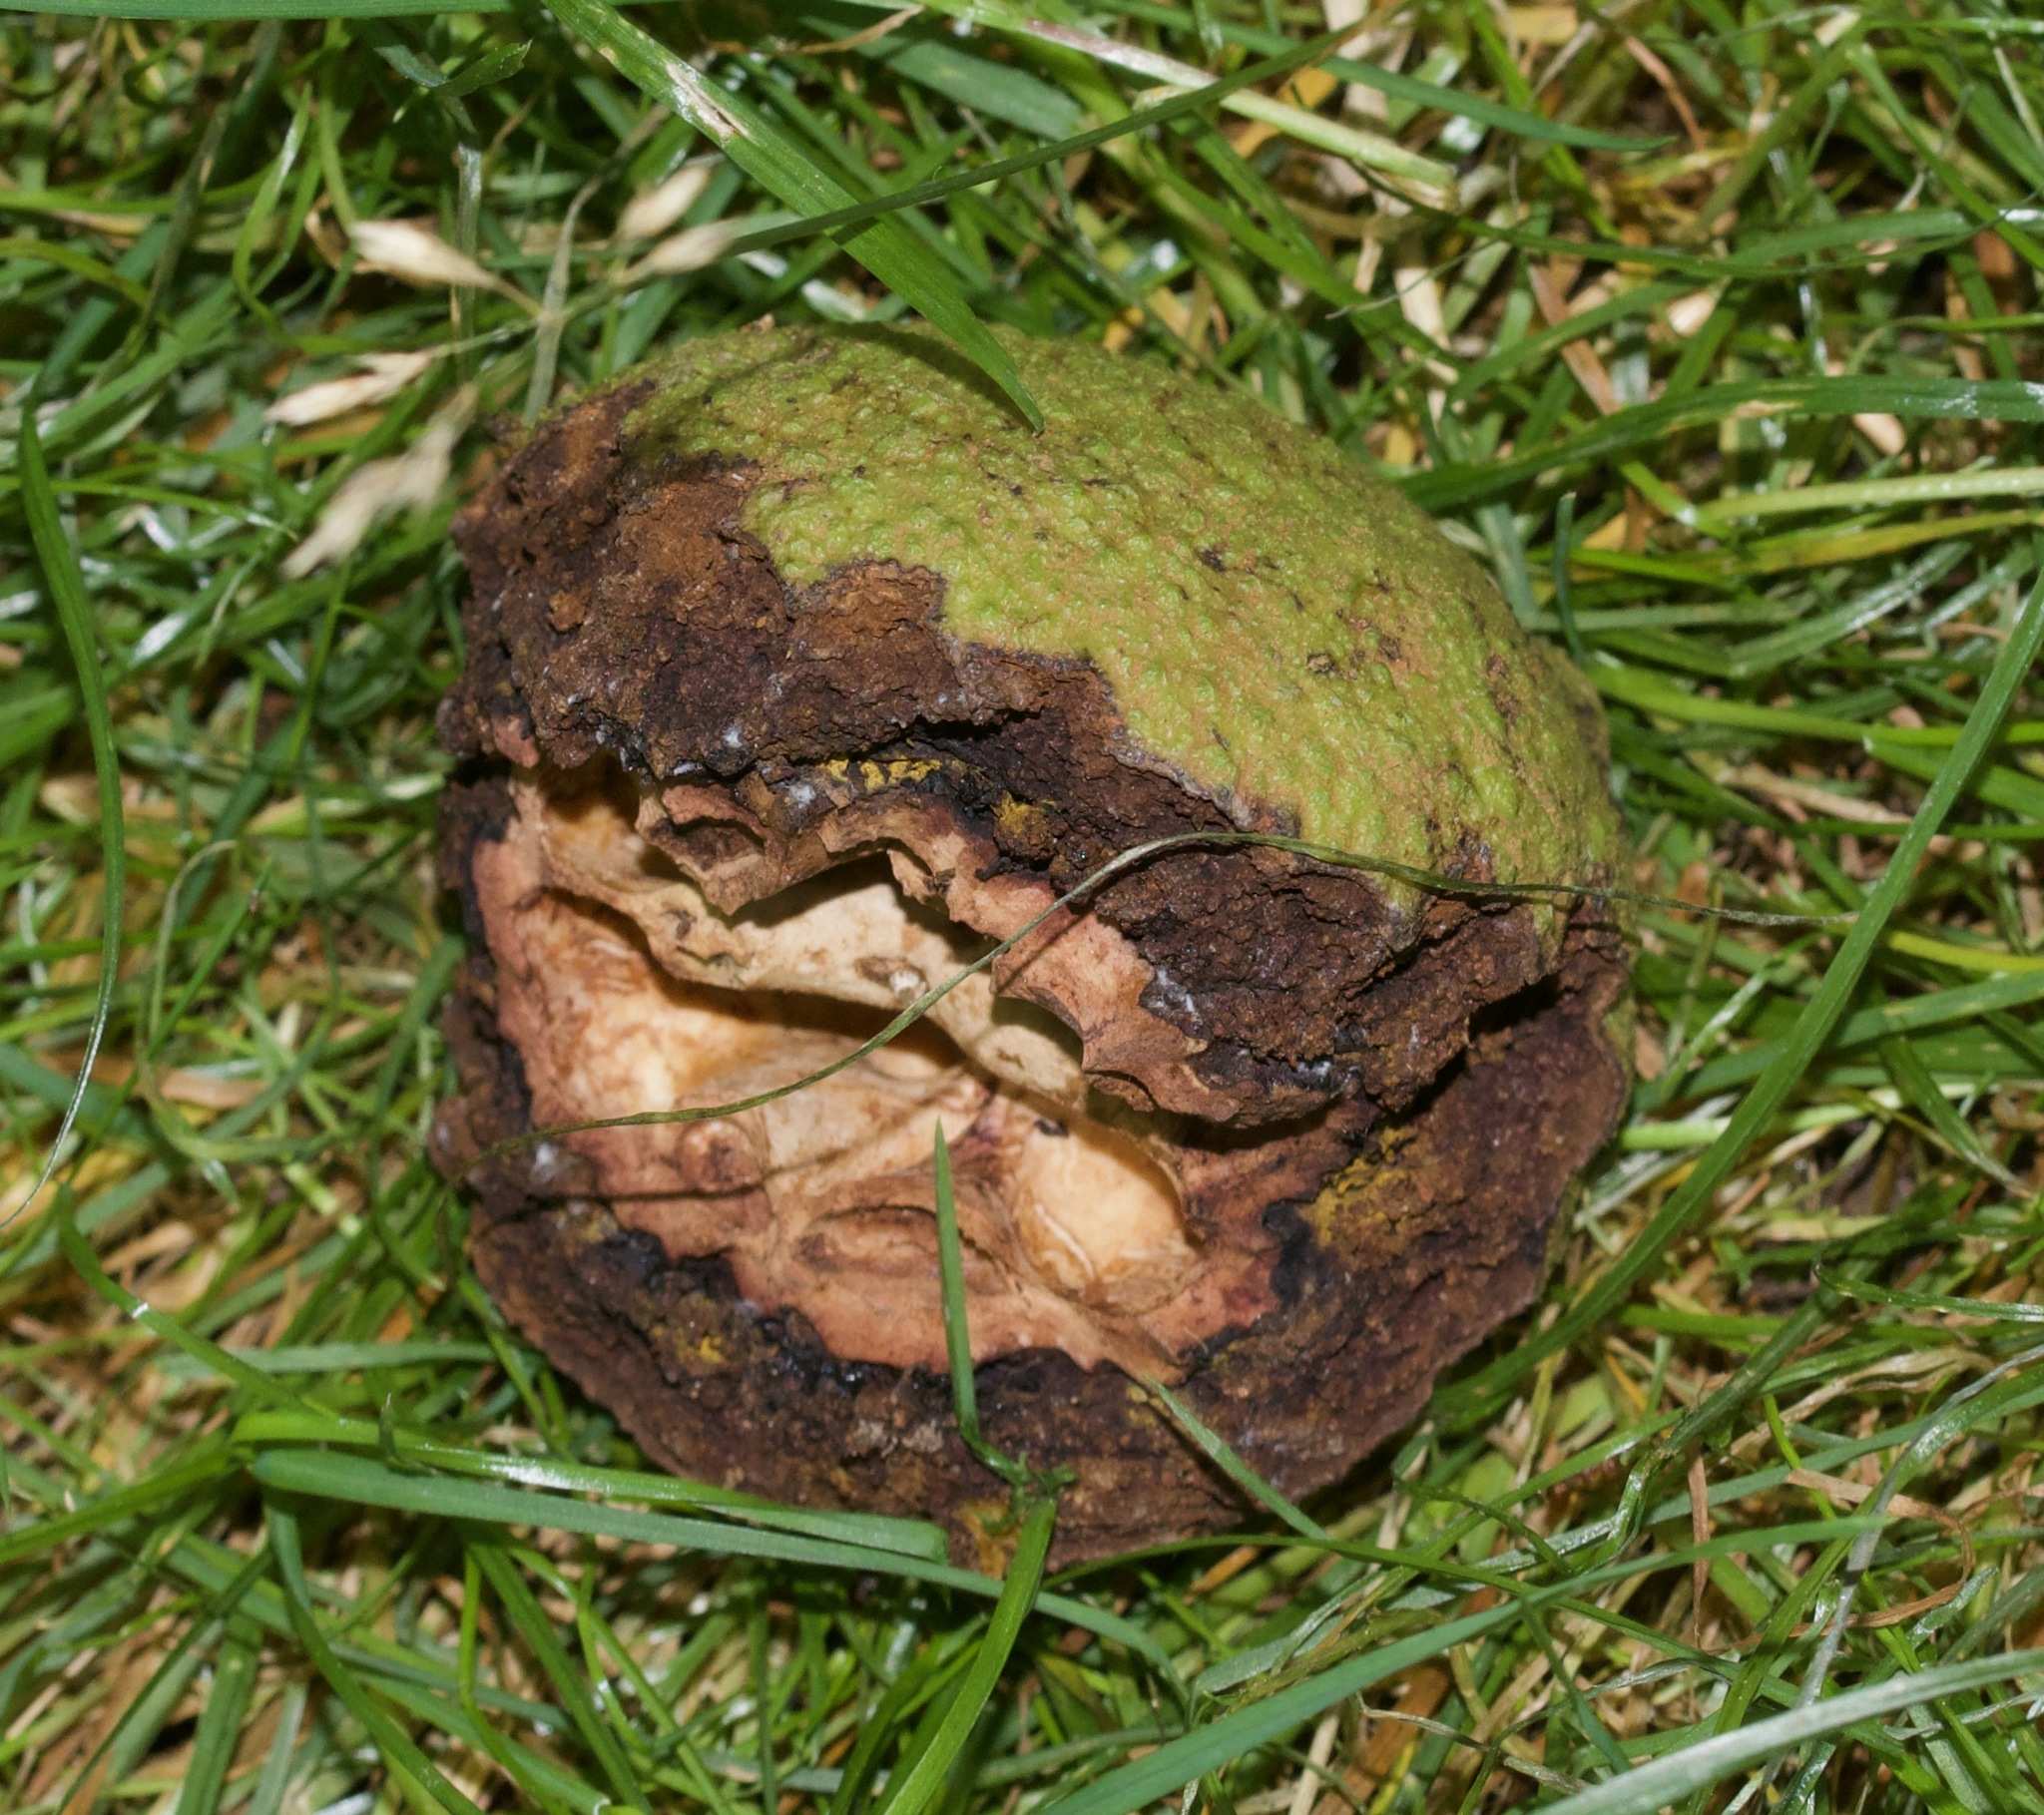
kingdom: Plantae
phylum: Tracheophyta
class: Magnoliopsida
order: Fagales
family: Juglandaceae
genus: Juglans
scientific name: Juglans nigra
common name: Black walnut
